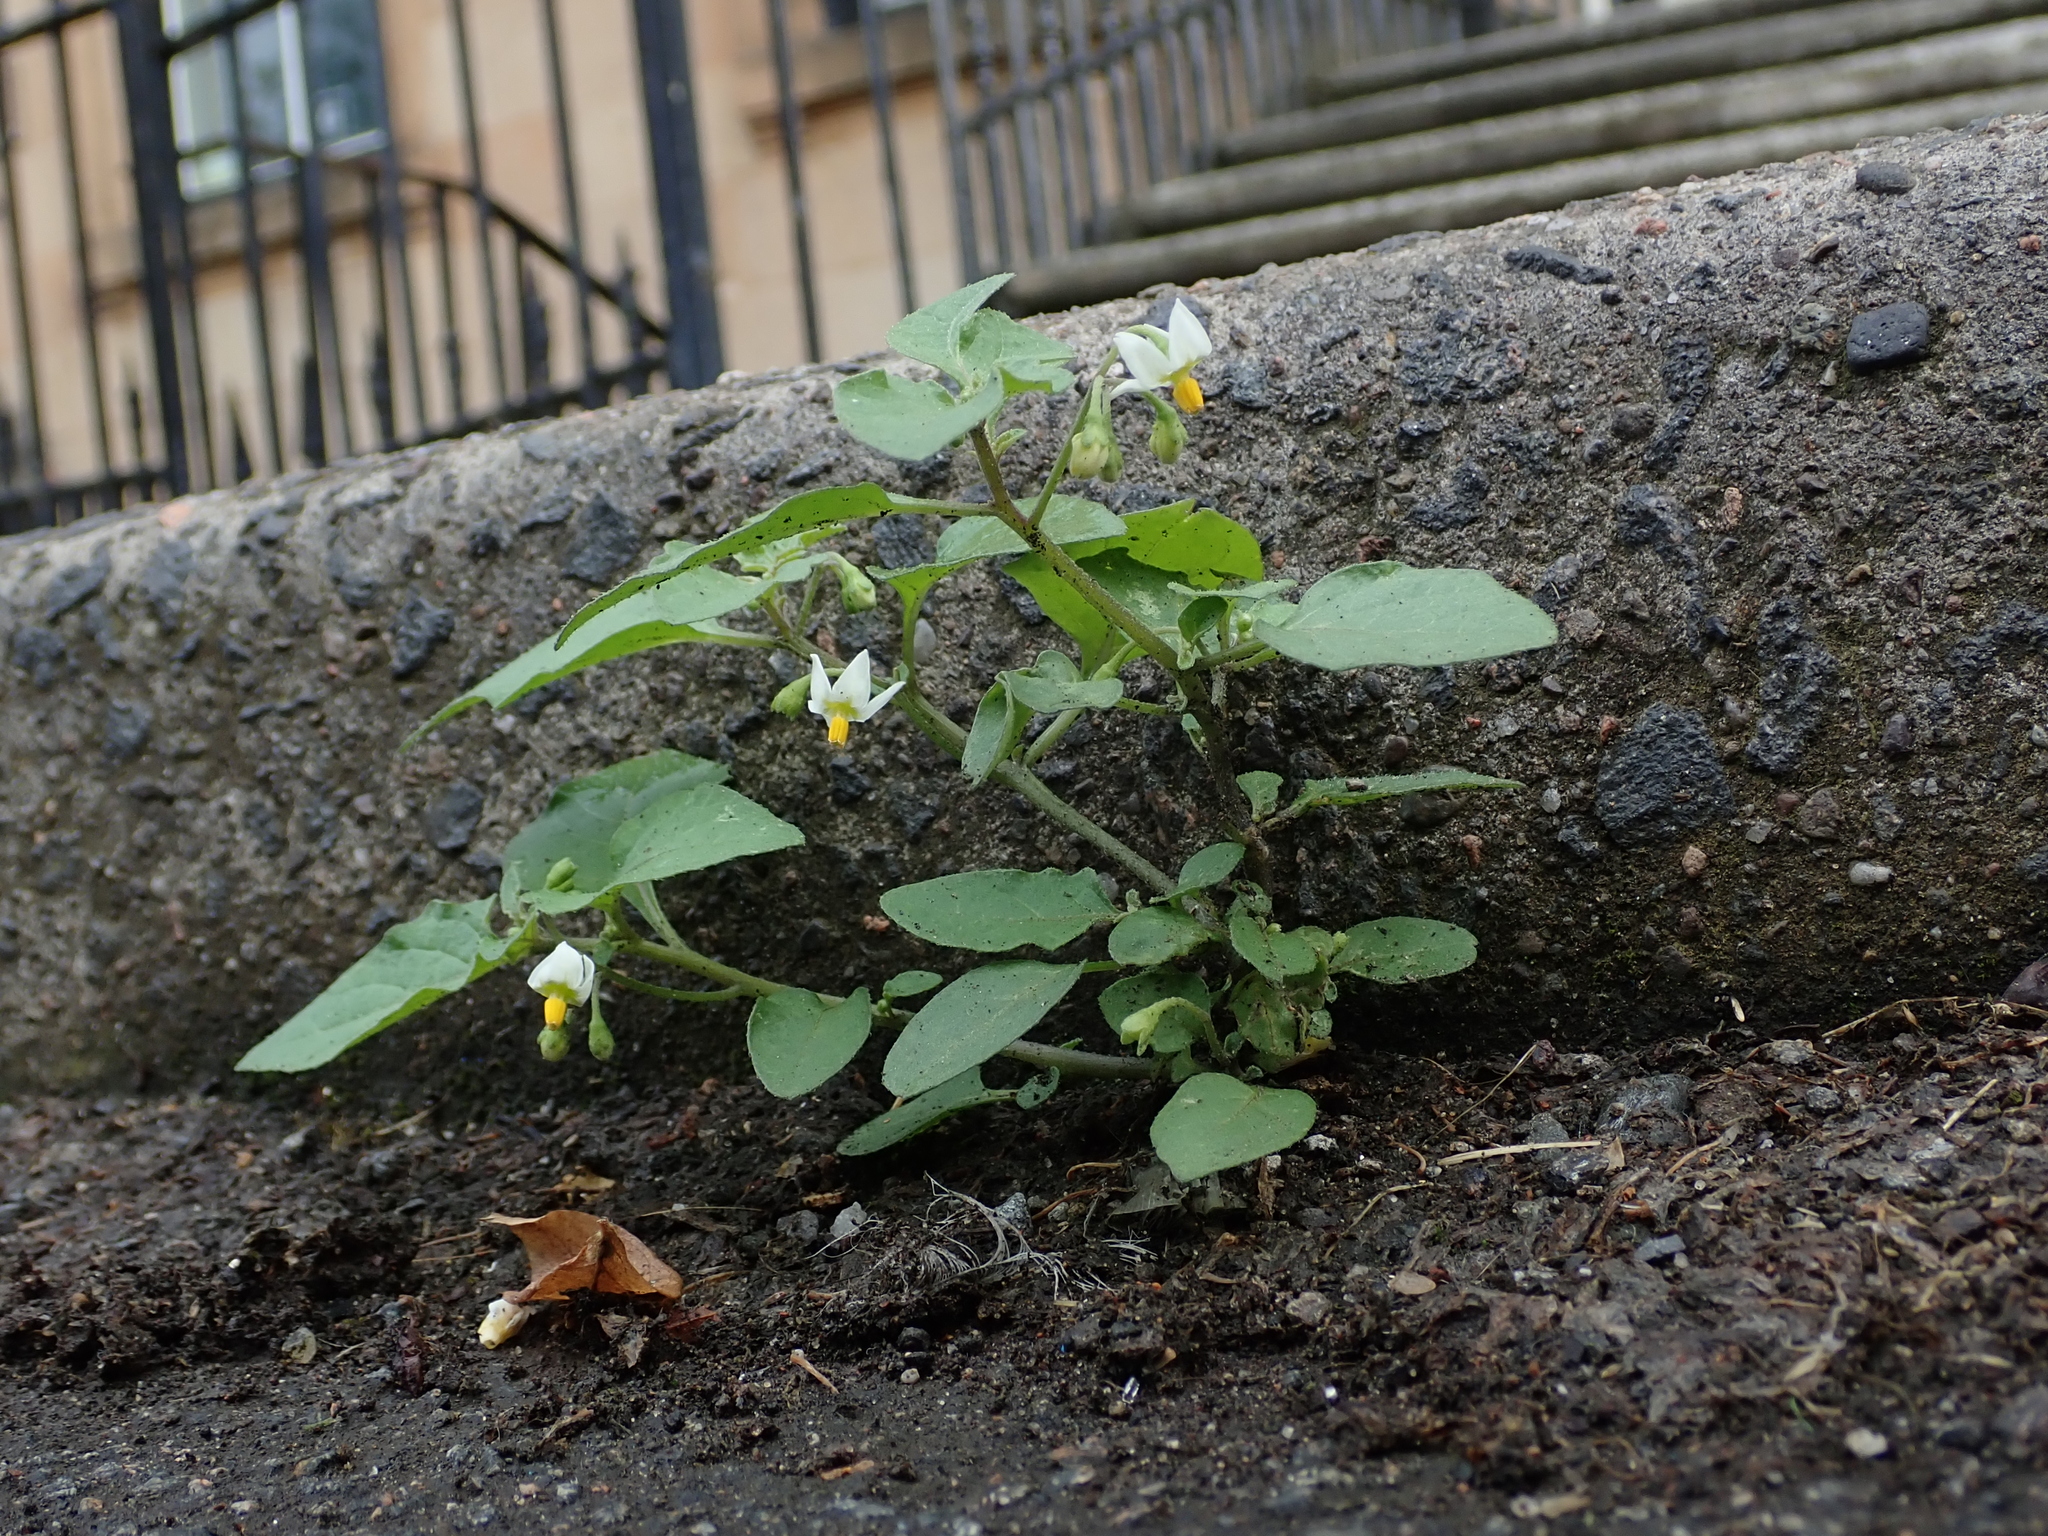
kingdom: Plantae
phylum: Tracheophyta
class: Magnoliopsida
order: Solanales
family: Solanaceae
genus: Solanum
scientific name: Solanum nigrum
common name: Black nightshade
